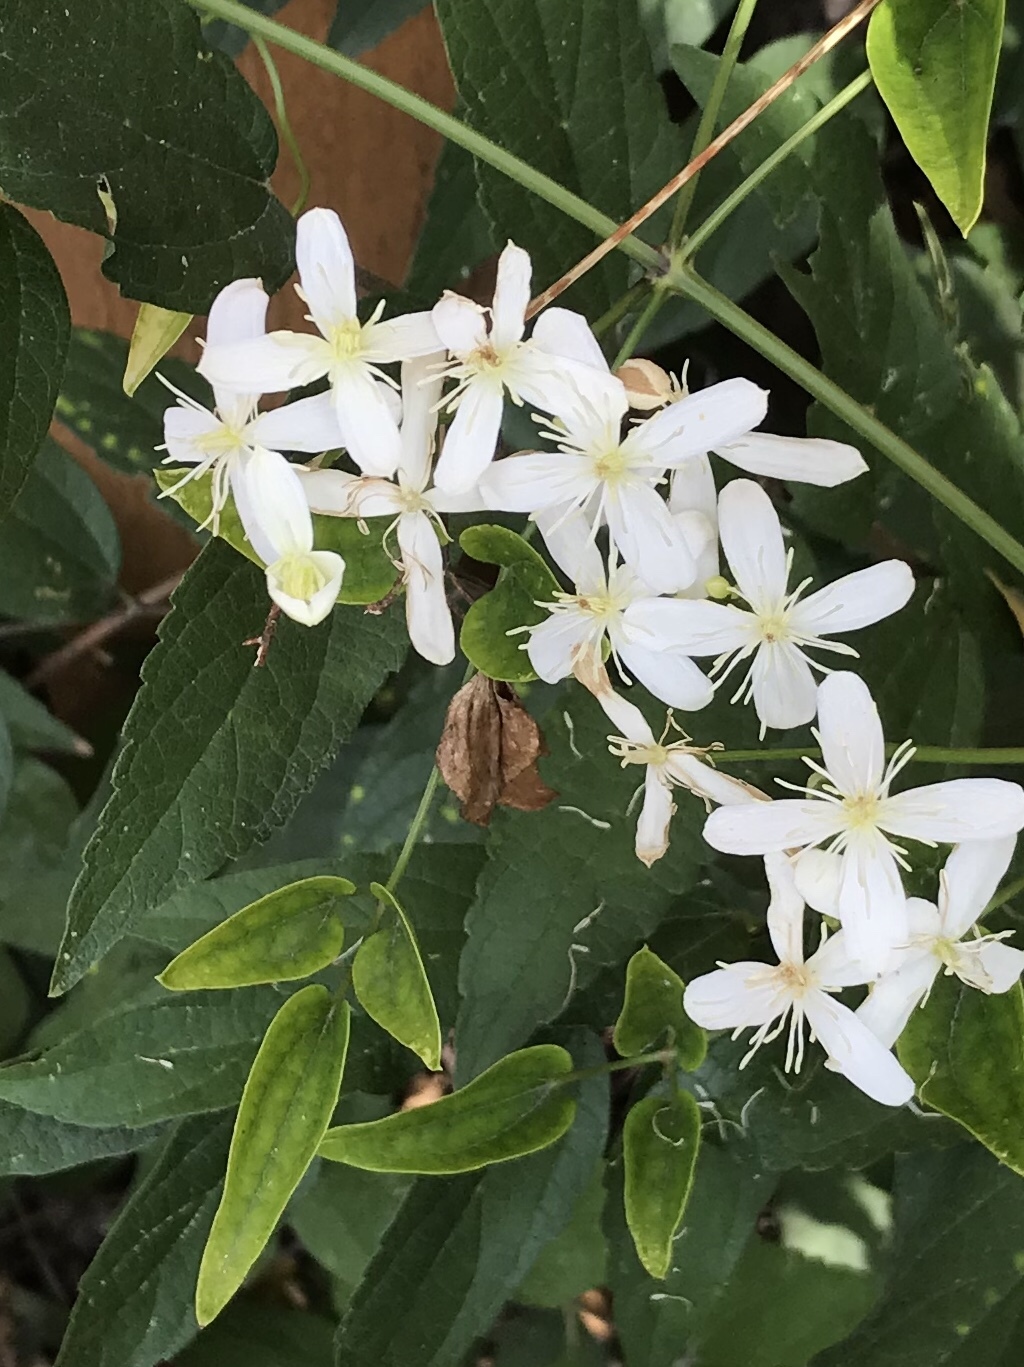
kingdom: Plantae
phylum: Tracheophyta
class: Magnoliopsida
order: Ranunculales
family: Ranunculaceae
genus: Clematis
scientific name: Clematis terniflora
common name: Sweet autumn clematis
